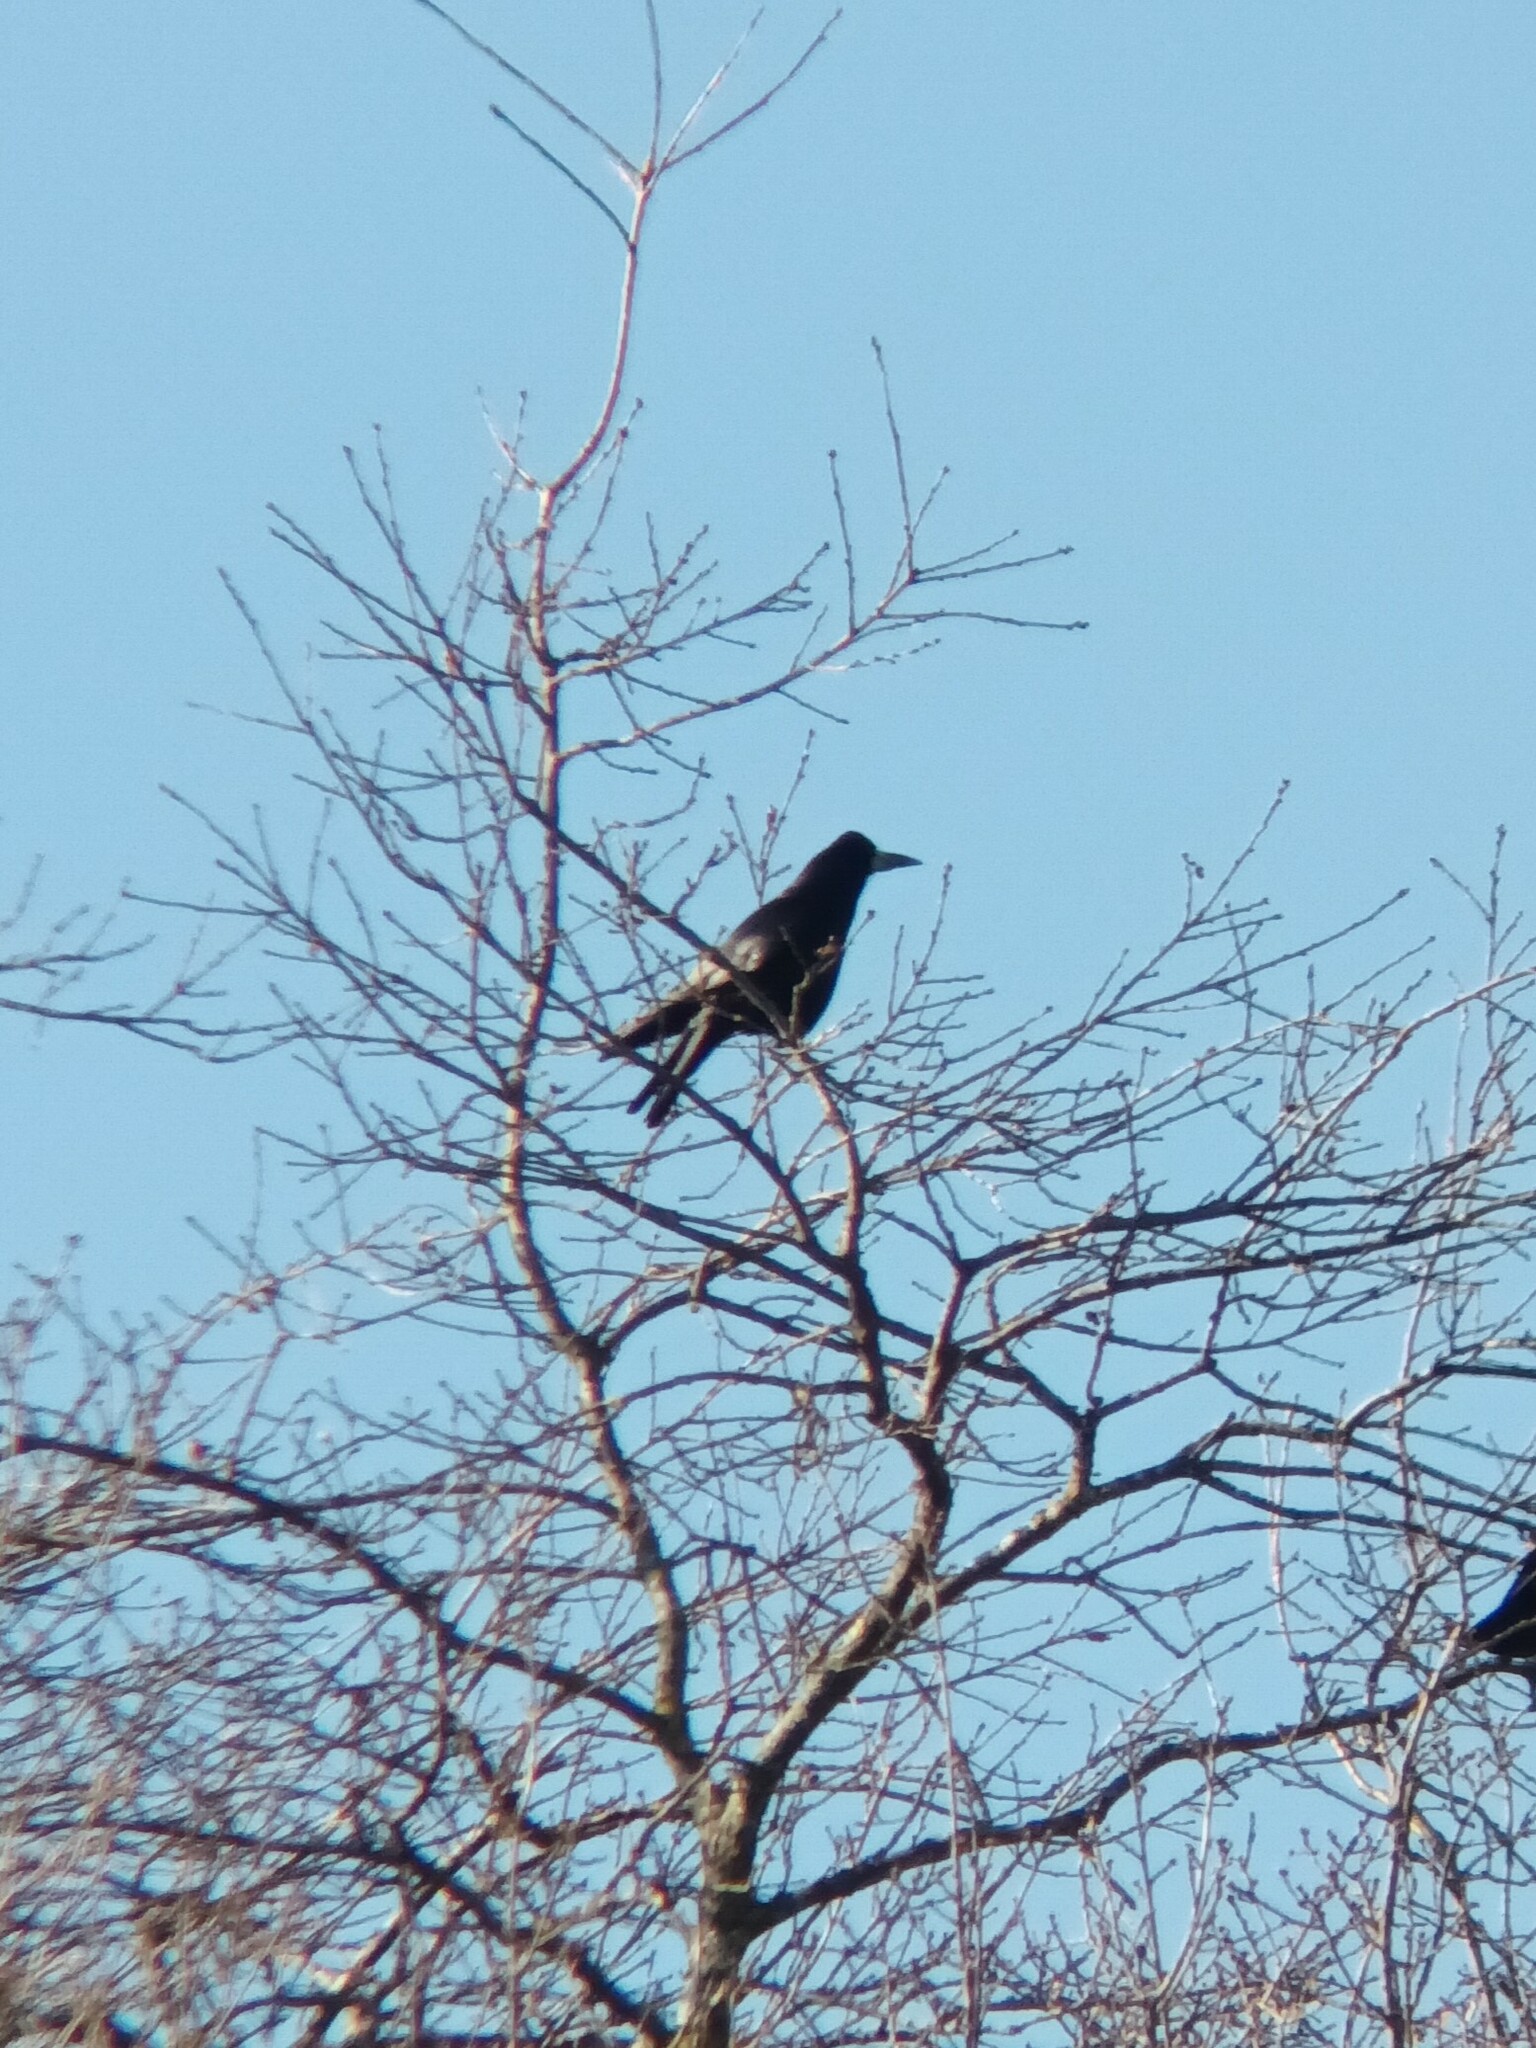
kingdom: Animalia
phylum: Chordata
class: Aves
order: Passeriformes
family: Corvidae
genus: Corvus
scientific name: Corvus frugilegus
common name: Rook
